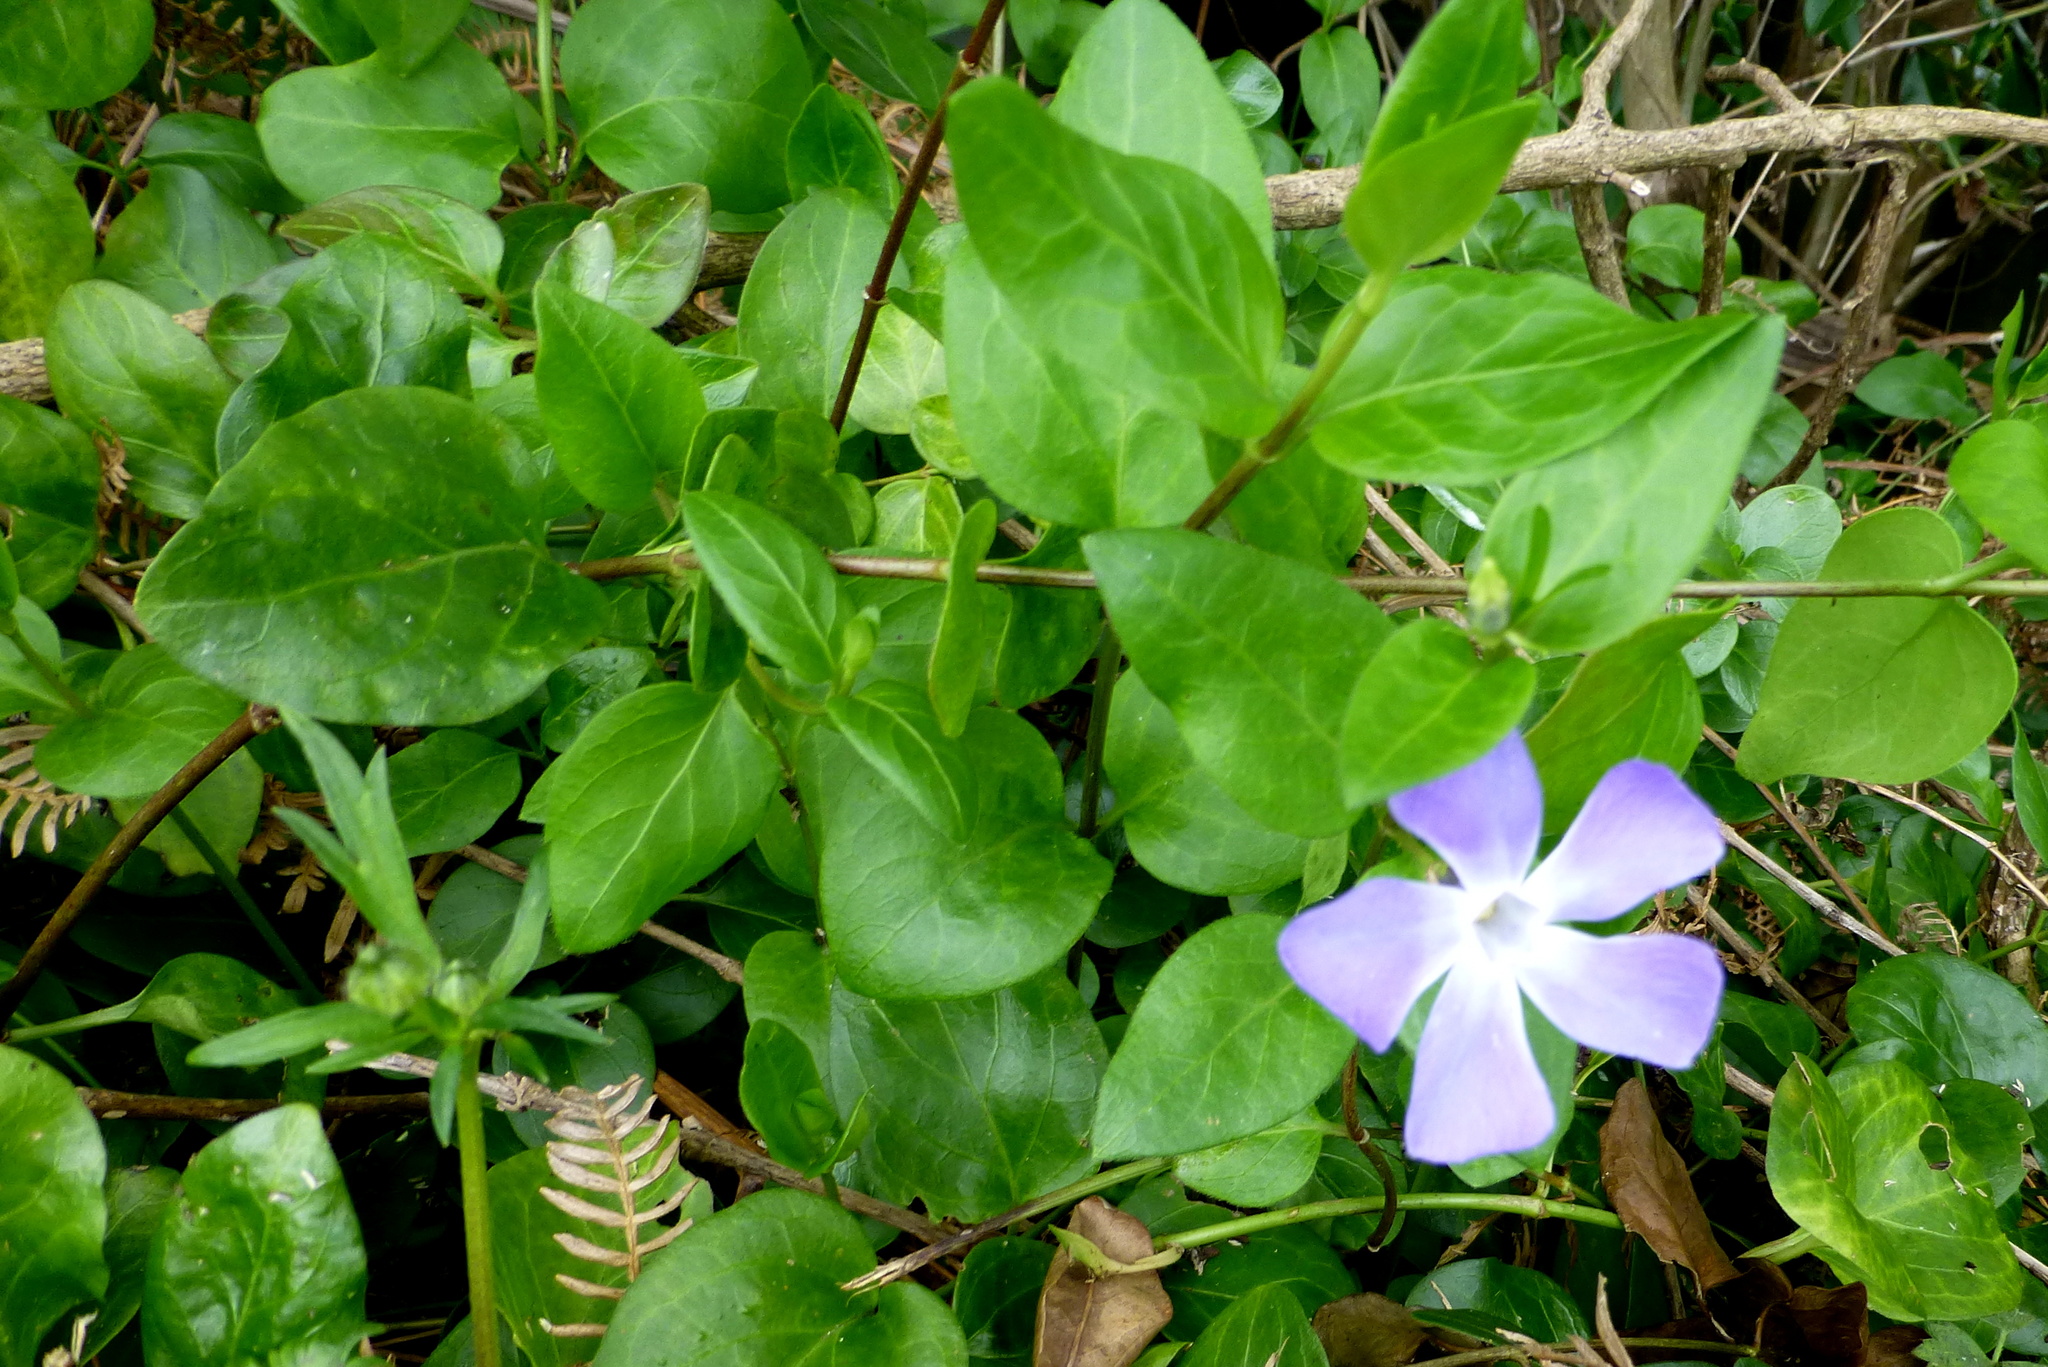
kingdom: Plantae
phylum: Tracheophyta
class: Magnoliopsida
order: Gentianales
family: Apocynaceae
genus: Vinca
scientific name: Vinca major
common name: Greater periwinkle
